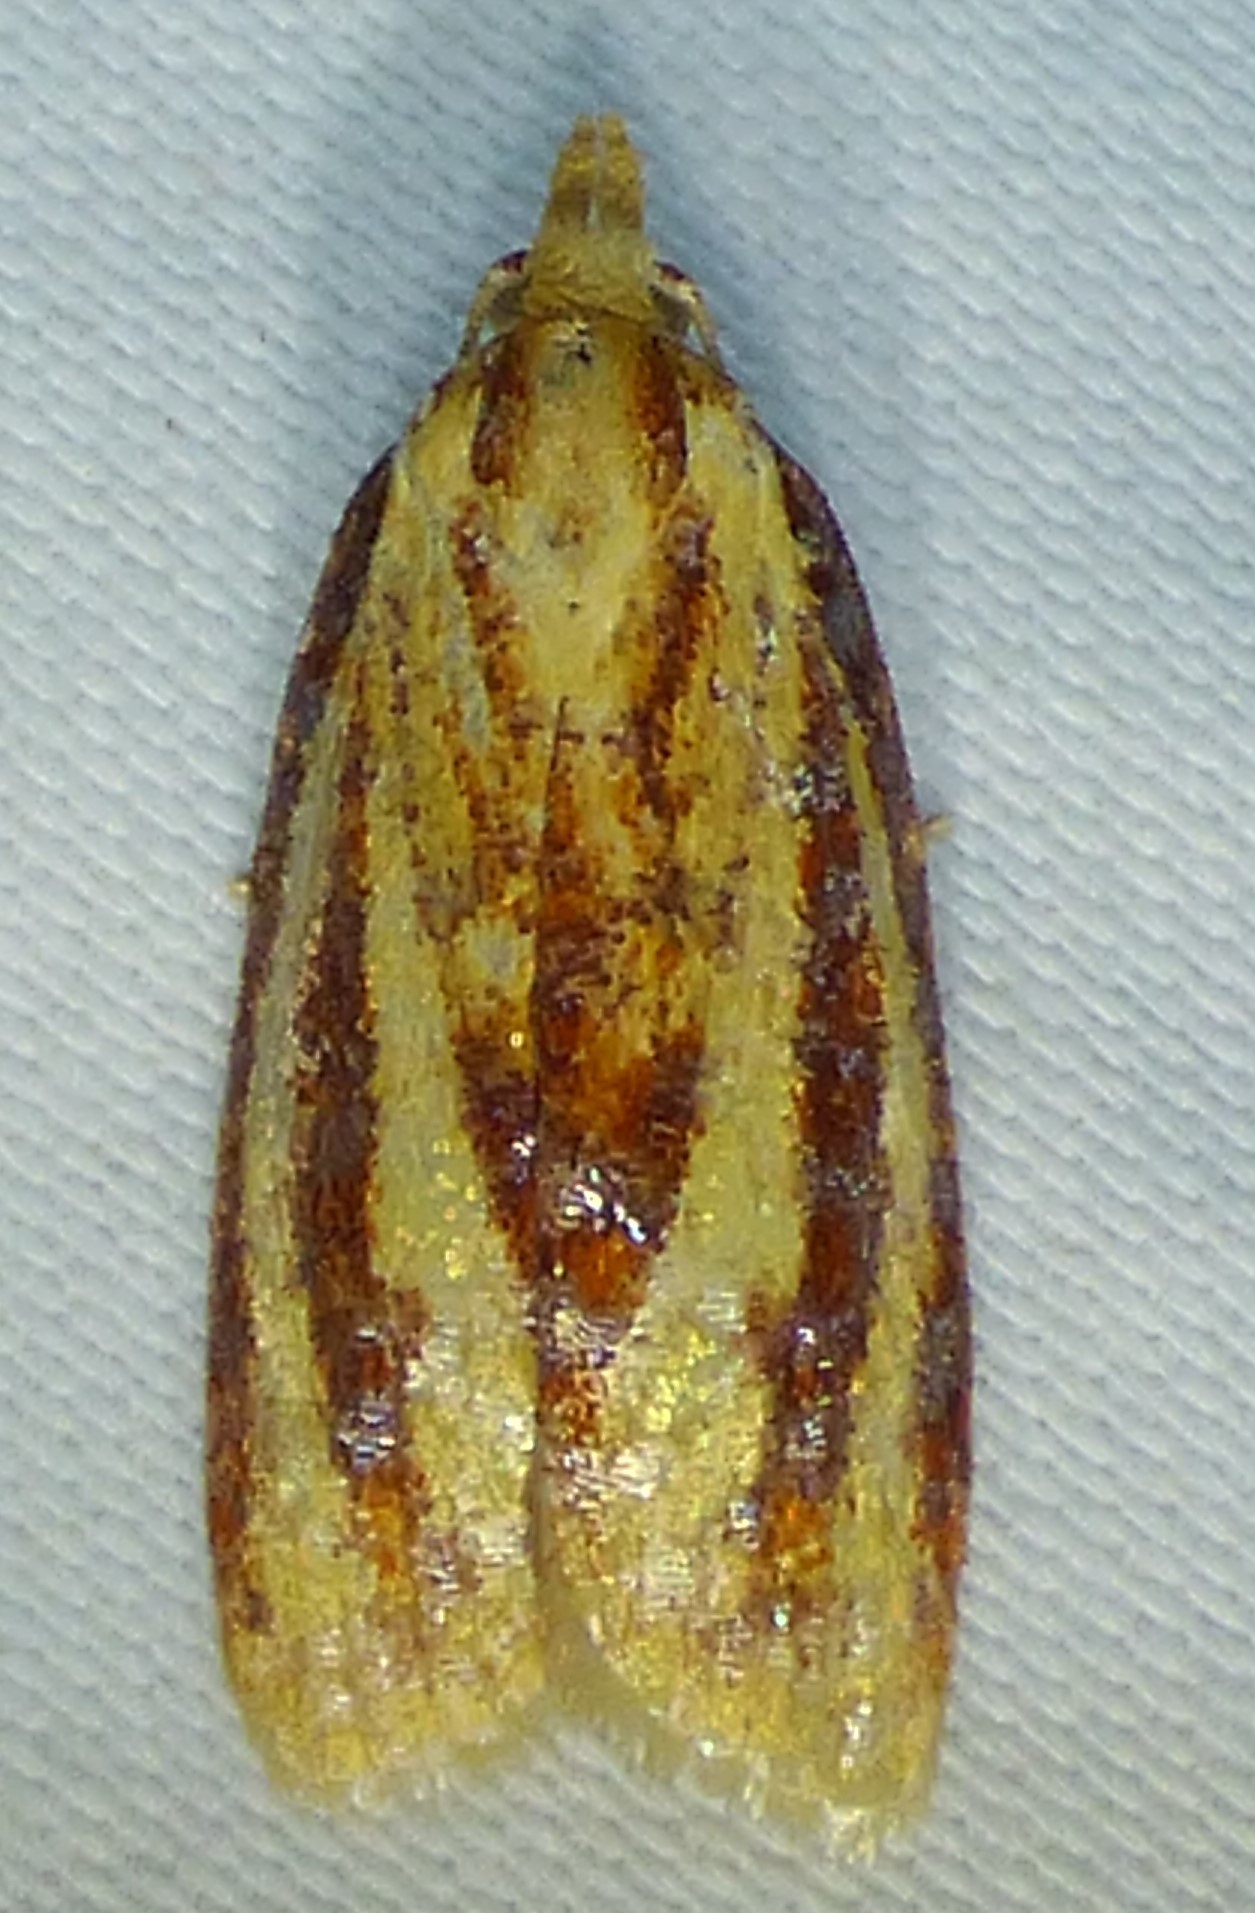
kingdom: Animalia
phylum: Arthropoda
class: Insecta
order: Lepidoptera
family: Tortricidae
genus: Sparganothis
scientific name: Sparganothis tristriata
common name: Three-streaked sparganothis moth
